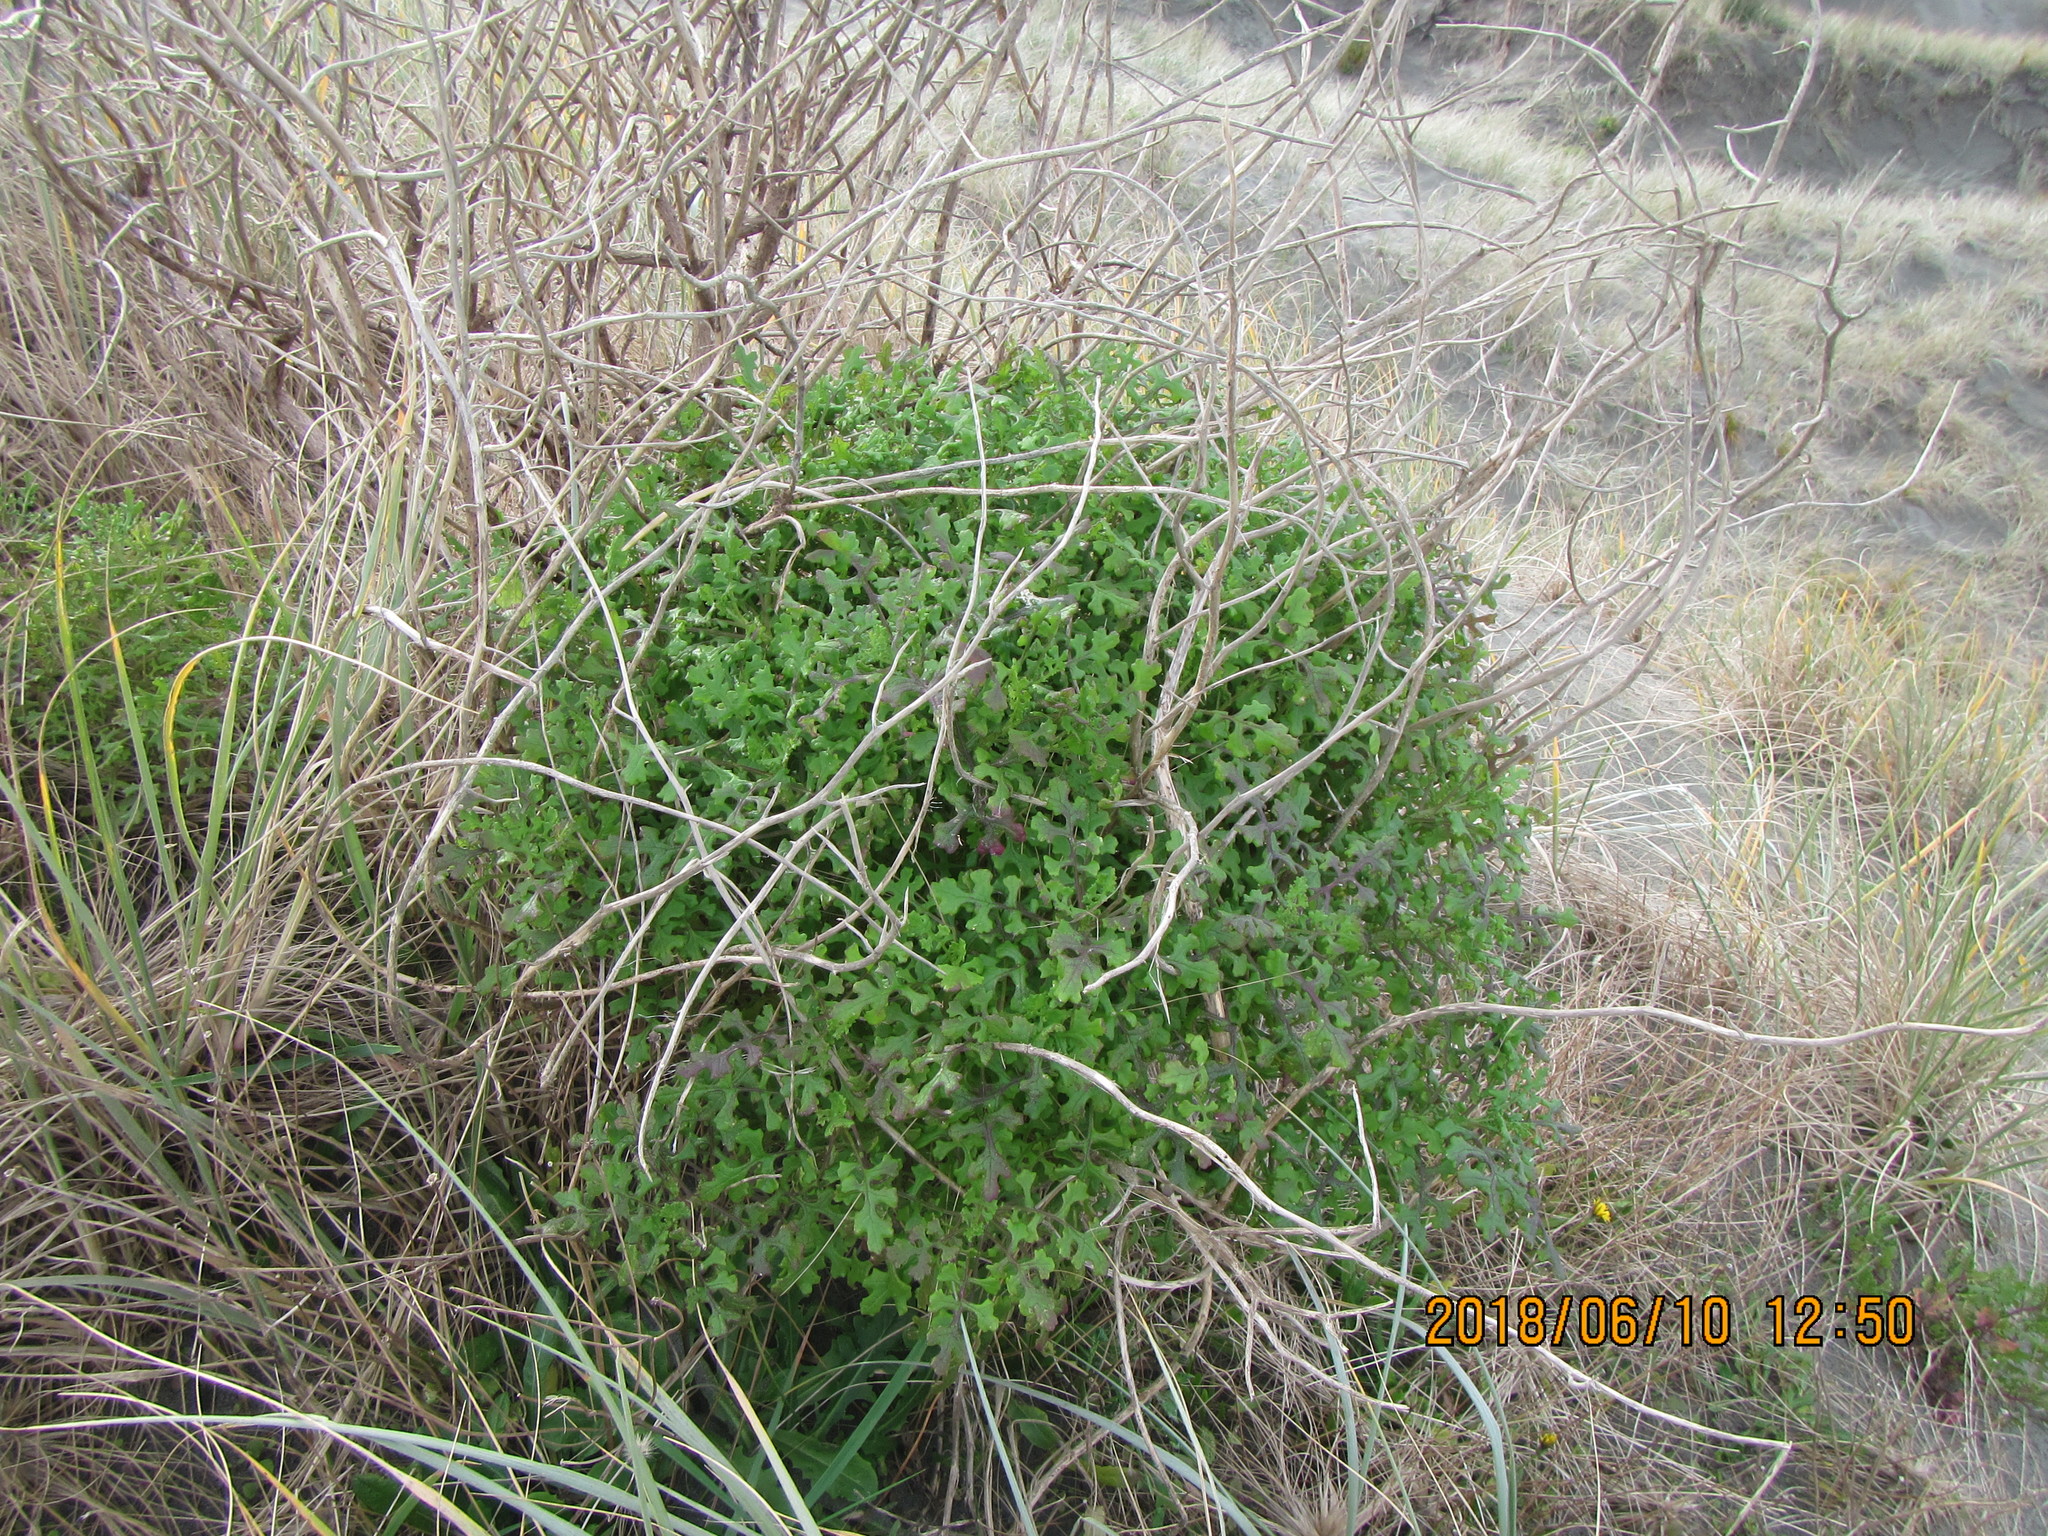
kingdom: Plantae
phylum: Tracheophyta
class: Magnoliopsida
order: Asterales
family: Asteraceae
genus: Senecio
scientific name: Senecio elegans
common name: Purple groundsel
